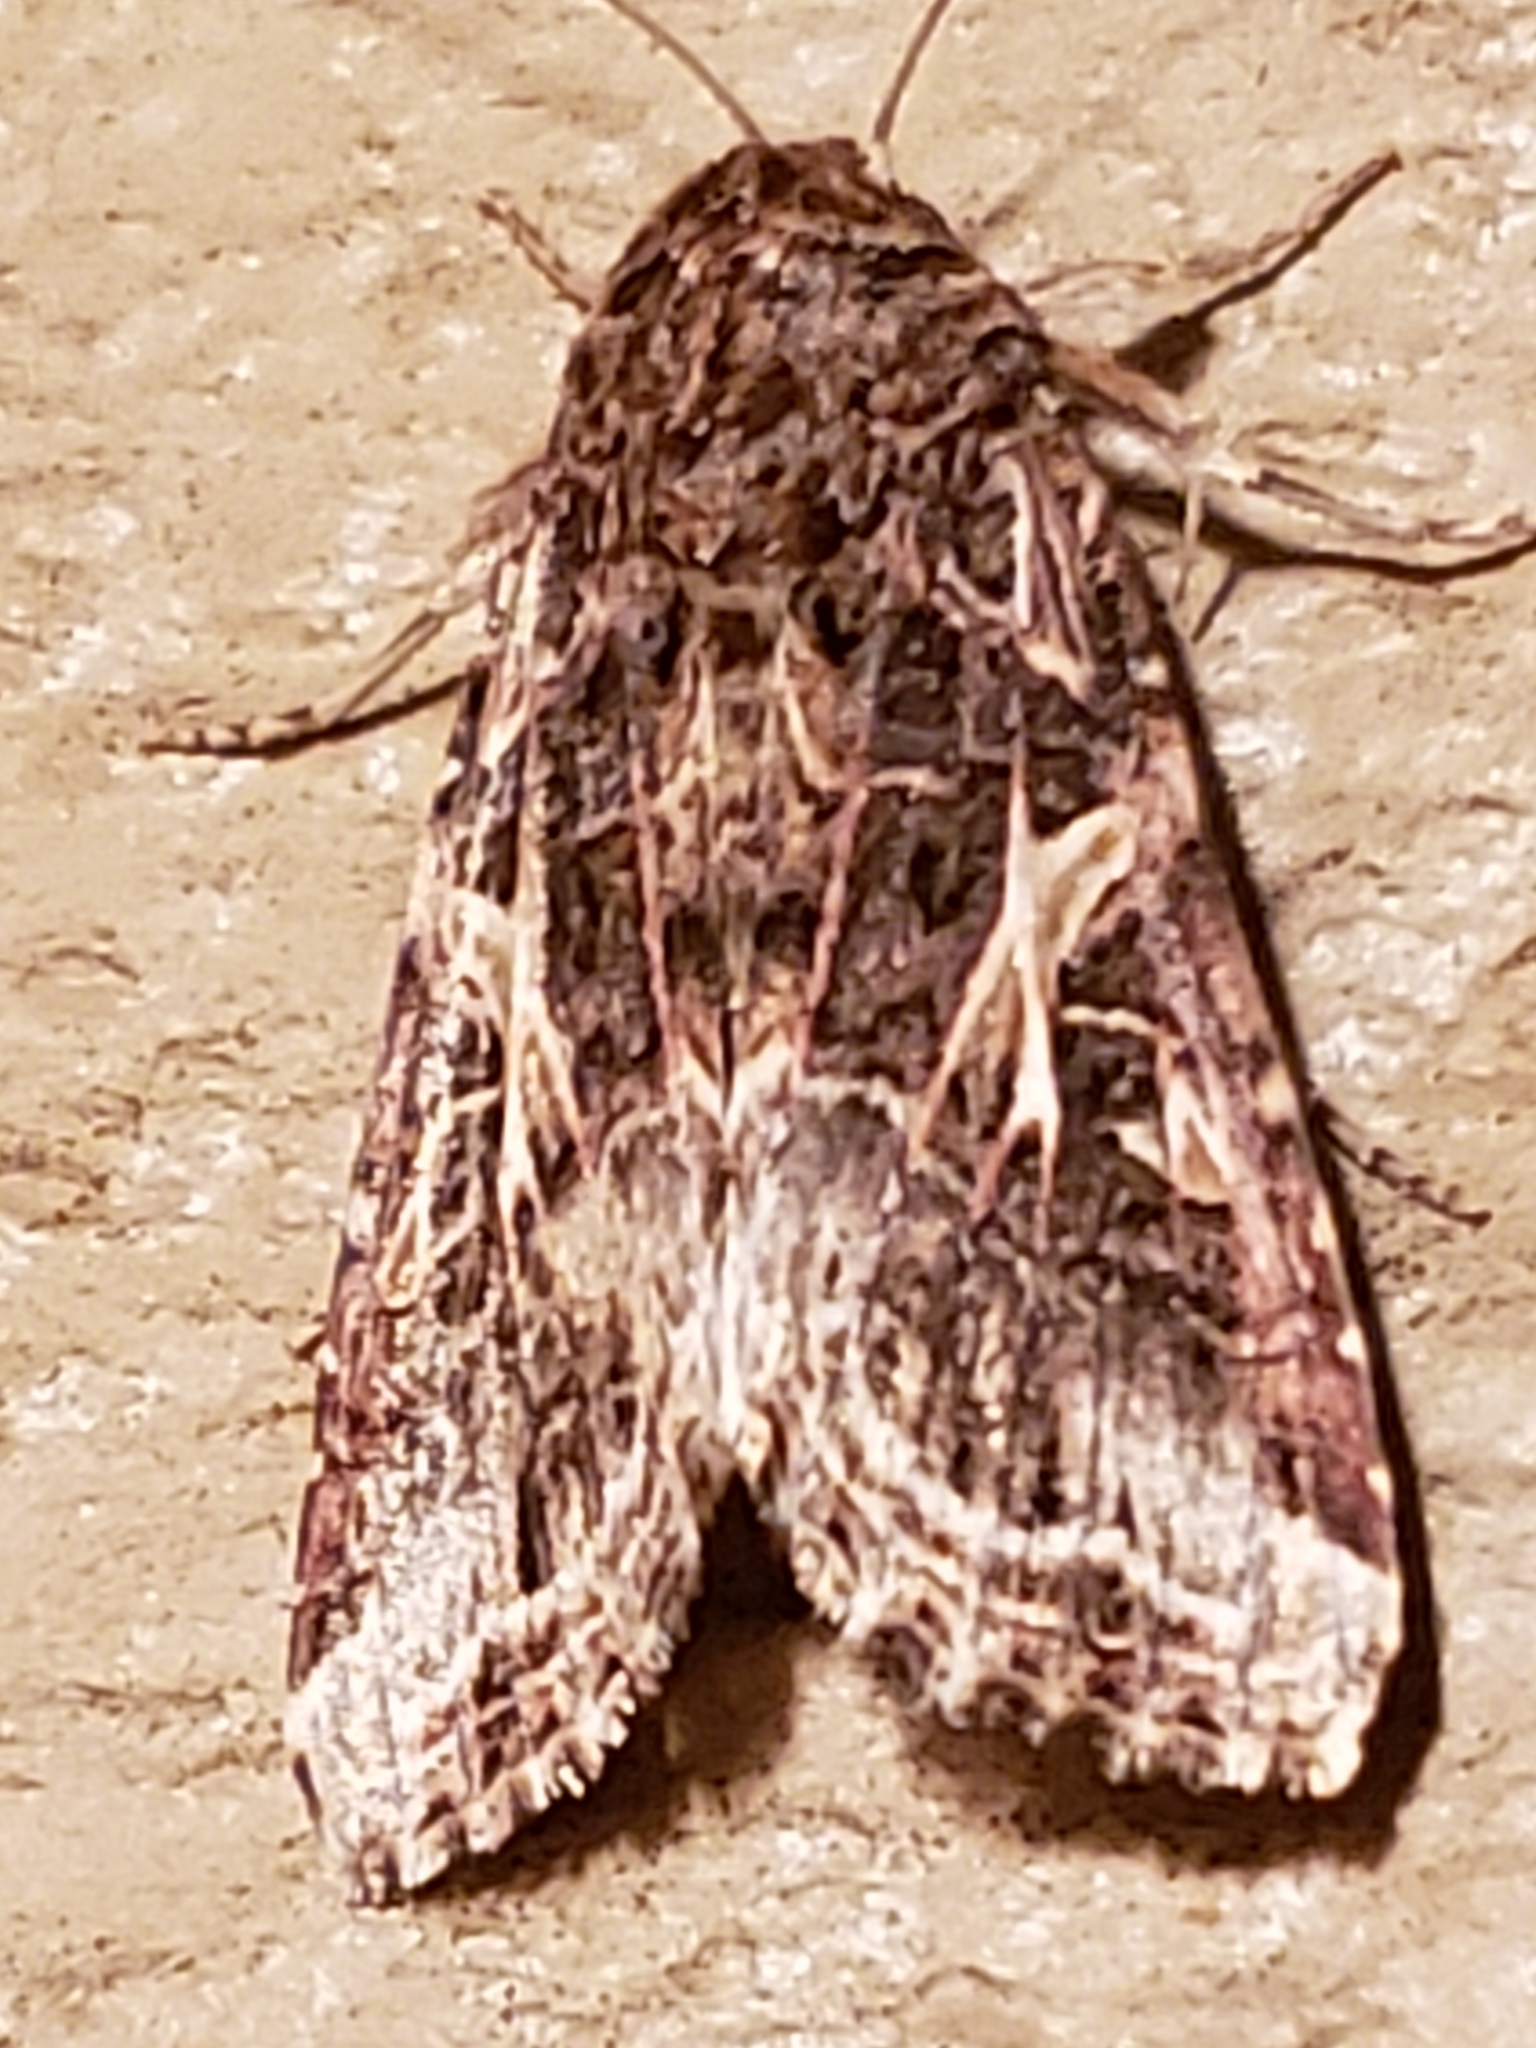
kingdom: Animalia
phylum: Arthropoda
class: Insecta
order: Lepidoptera
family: Noctuidae
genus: Spodoptera
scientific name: Spodoptera ornithogalli
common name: Yellow-striped armyworm
